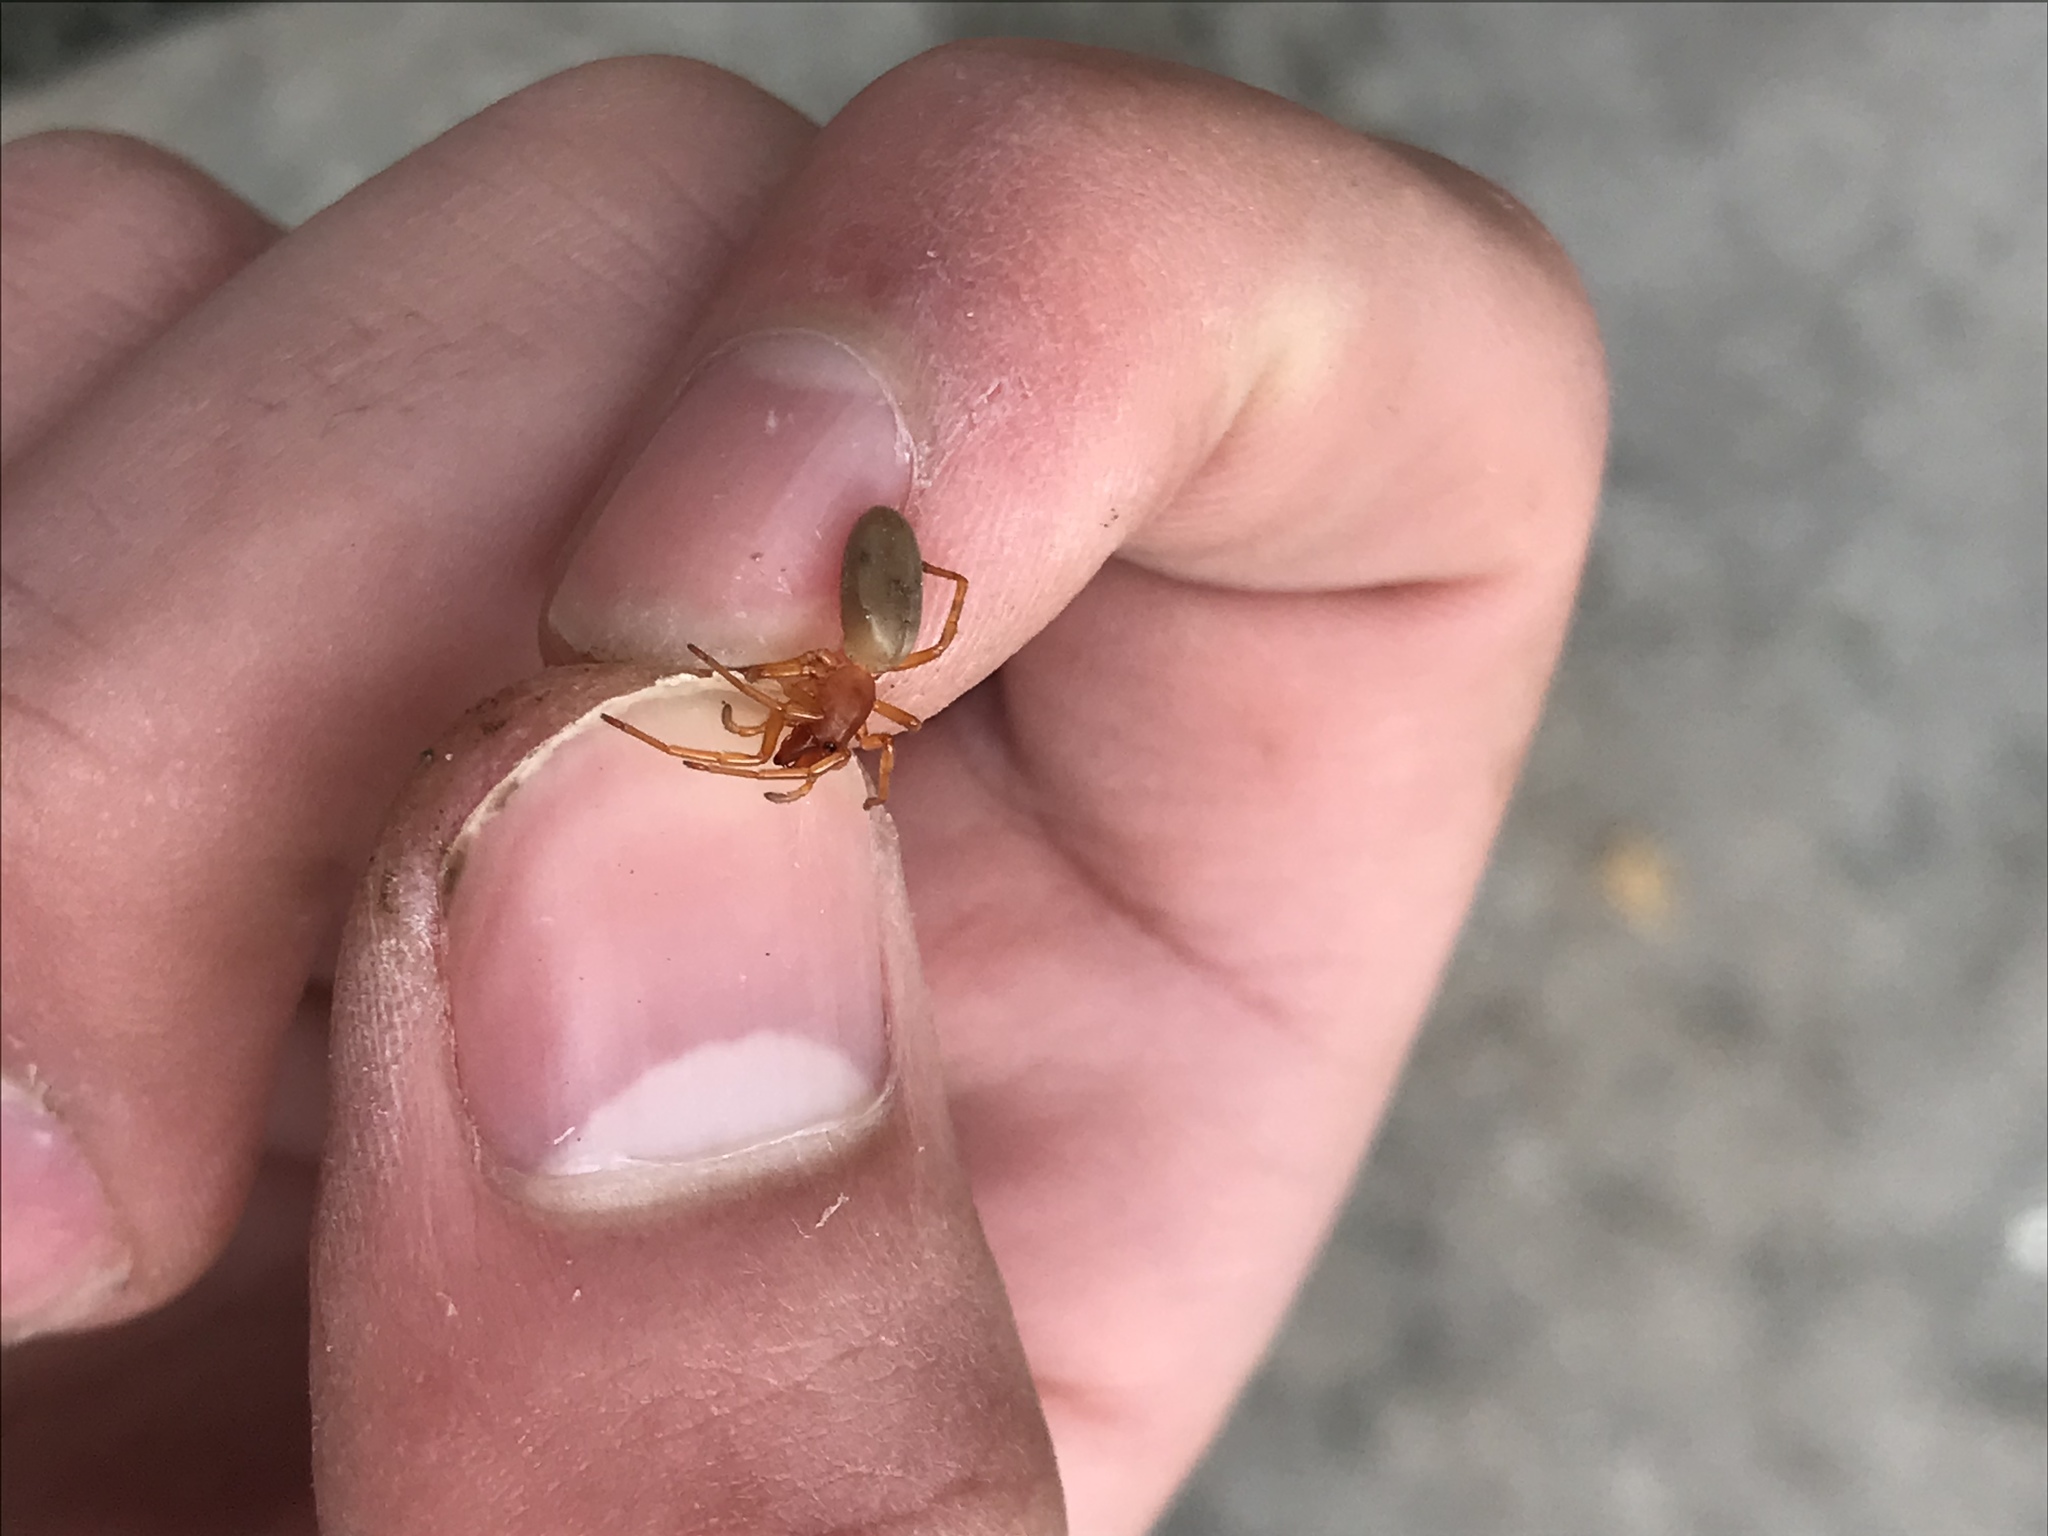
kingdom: Animalia
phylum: Arthropoda
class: Arachnida
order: Araneae
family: Dysderidae
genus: Dysdera
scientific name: Dysdera crocata
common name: Woodlouse spider
